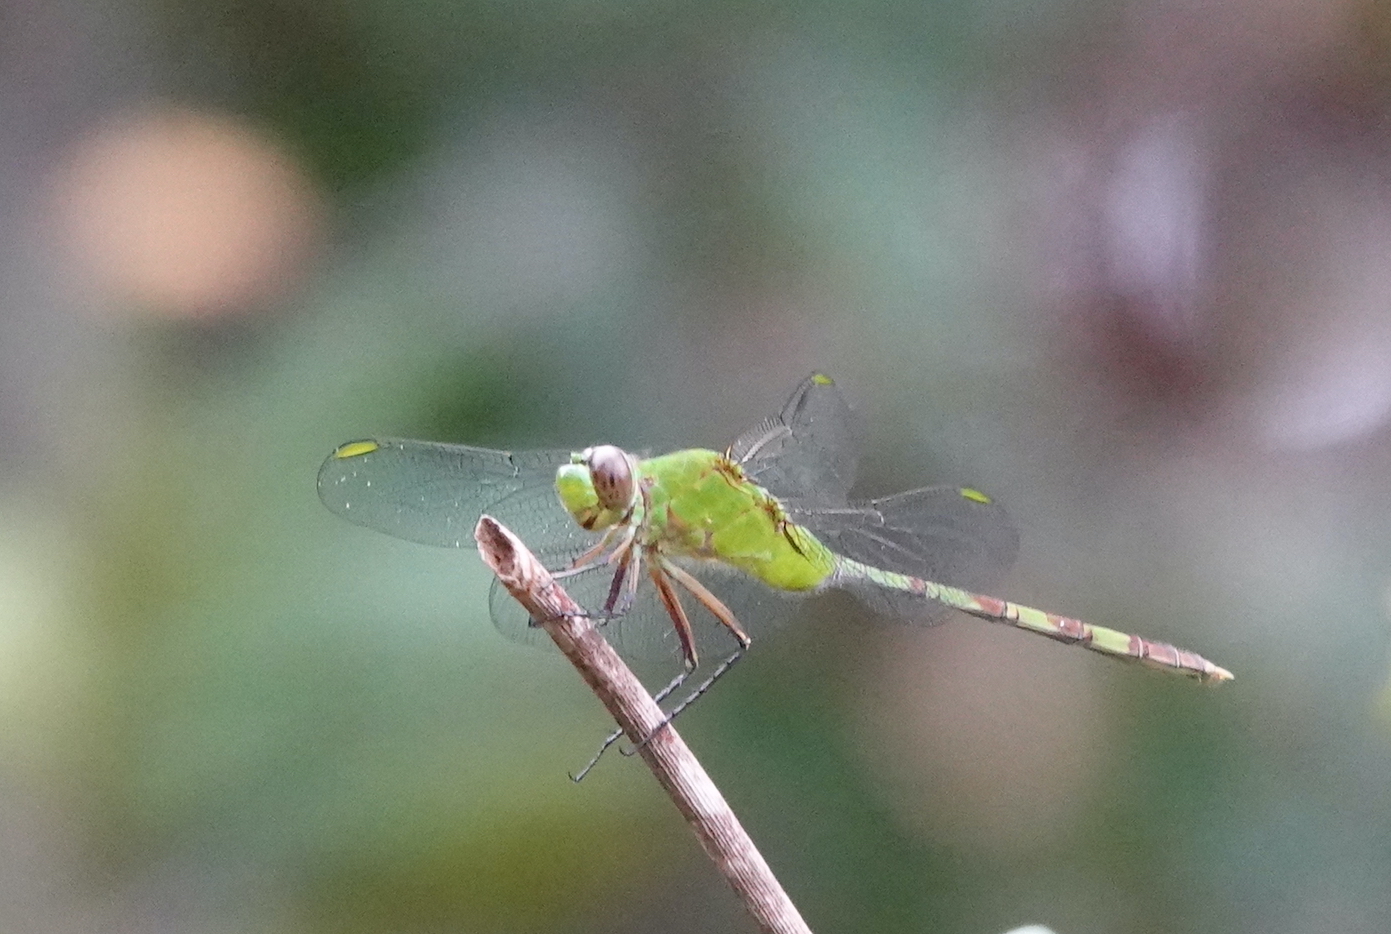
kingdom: Animalia
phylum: Arthropoda
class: Insecta
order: Odonata
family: Libellulidae
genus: Erythemis
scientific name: Erythemis vesiculosa
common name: Great pondhawk
